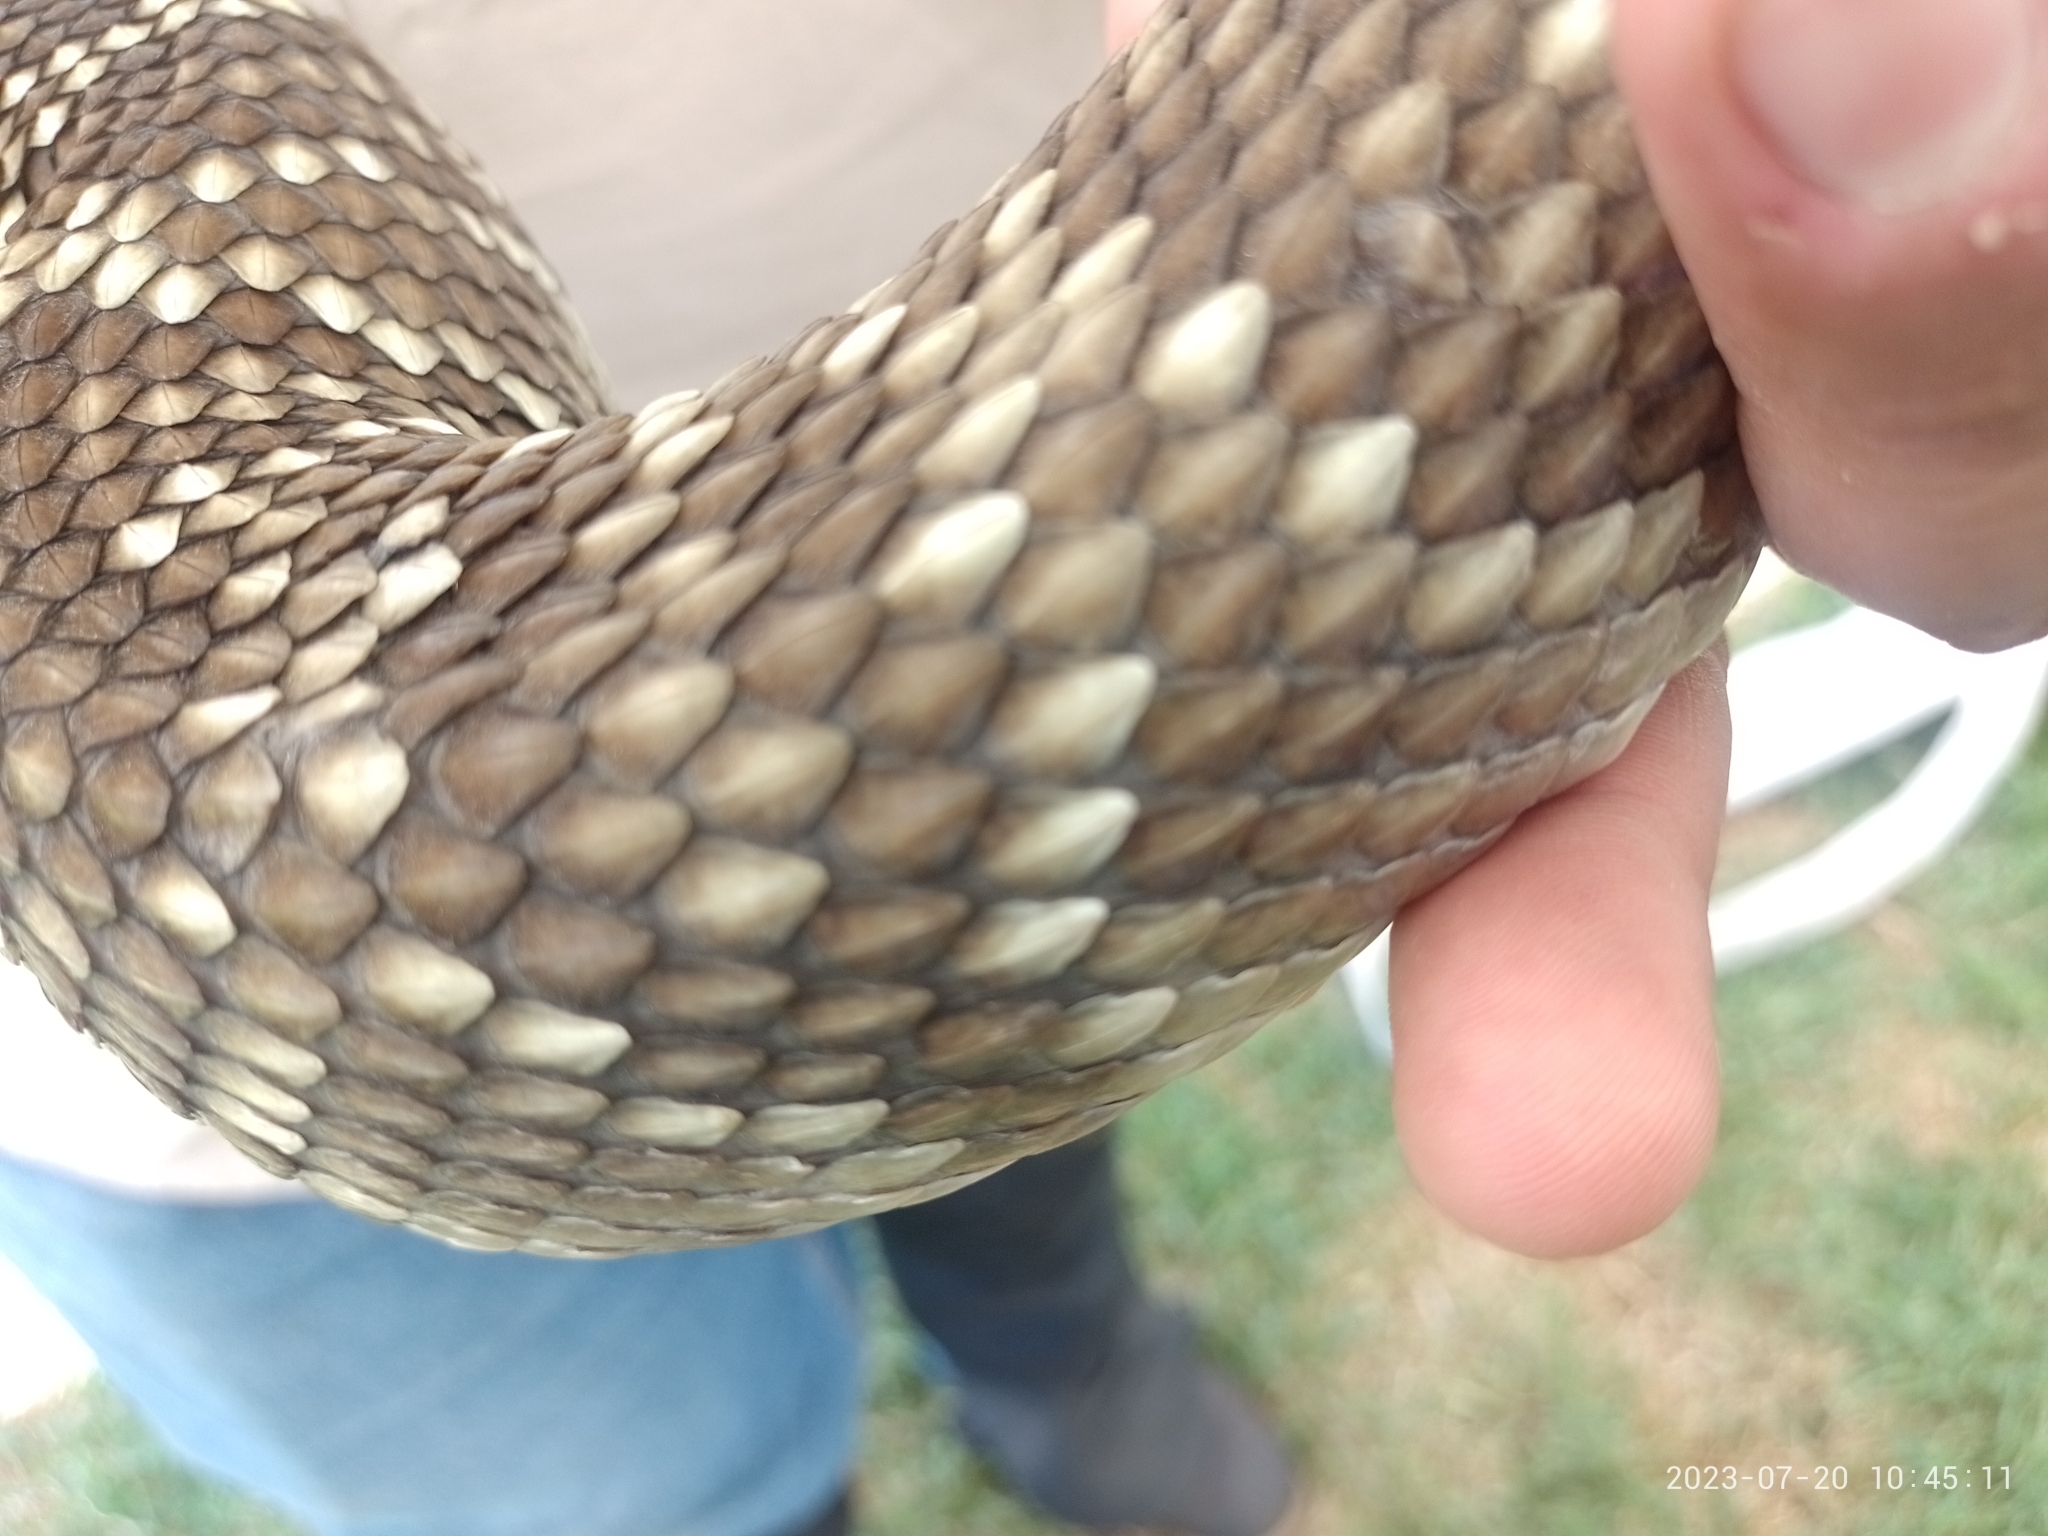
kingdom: Animalia
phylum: Chordata
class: Squamata
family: Viperidae
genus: Crotalus
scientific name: Crotalus molossus
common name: Black tailed rattlesnake
